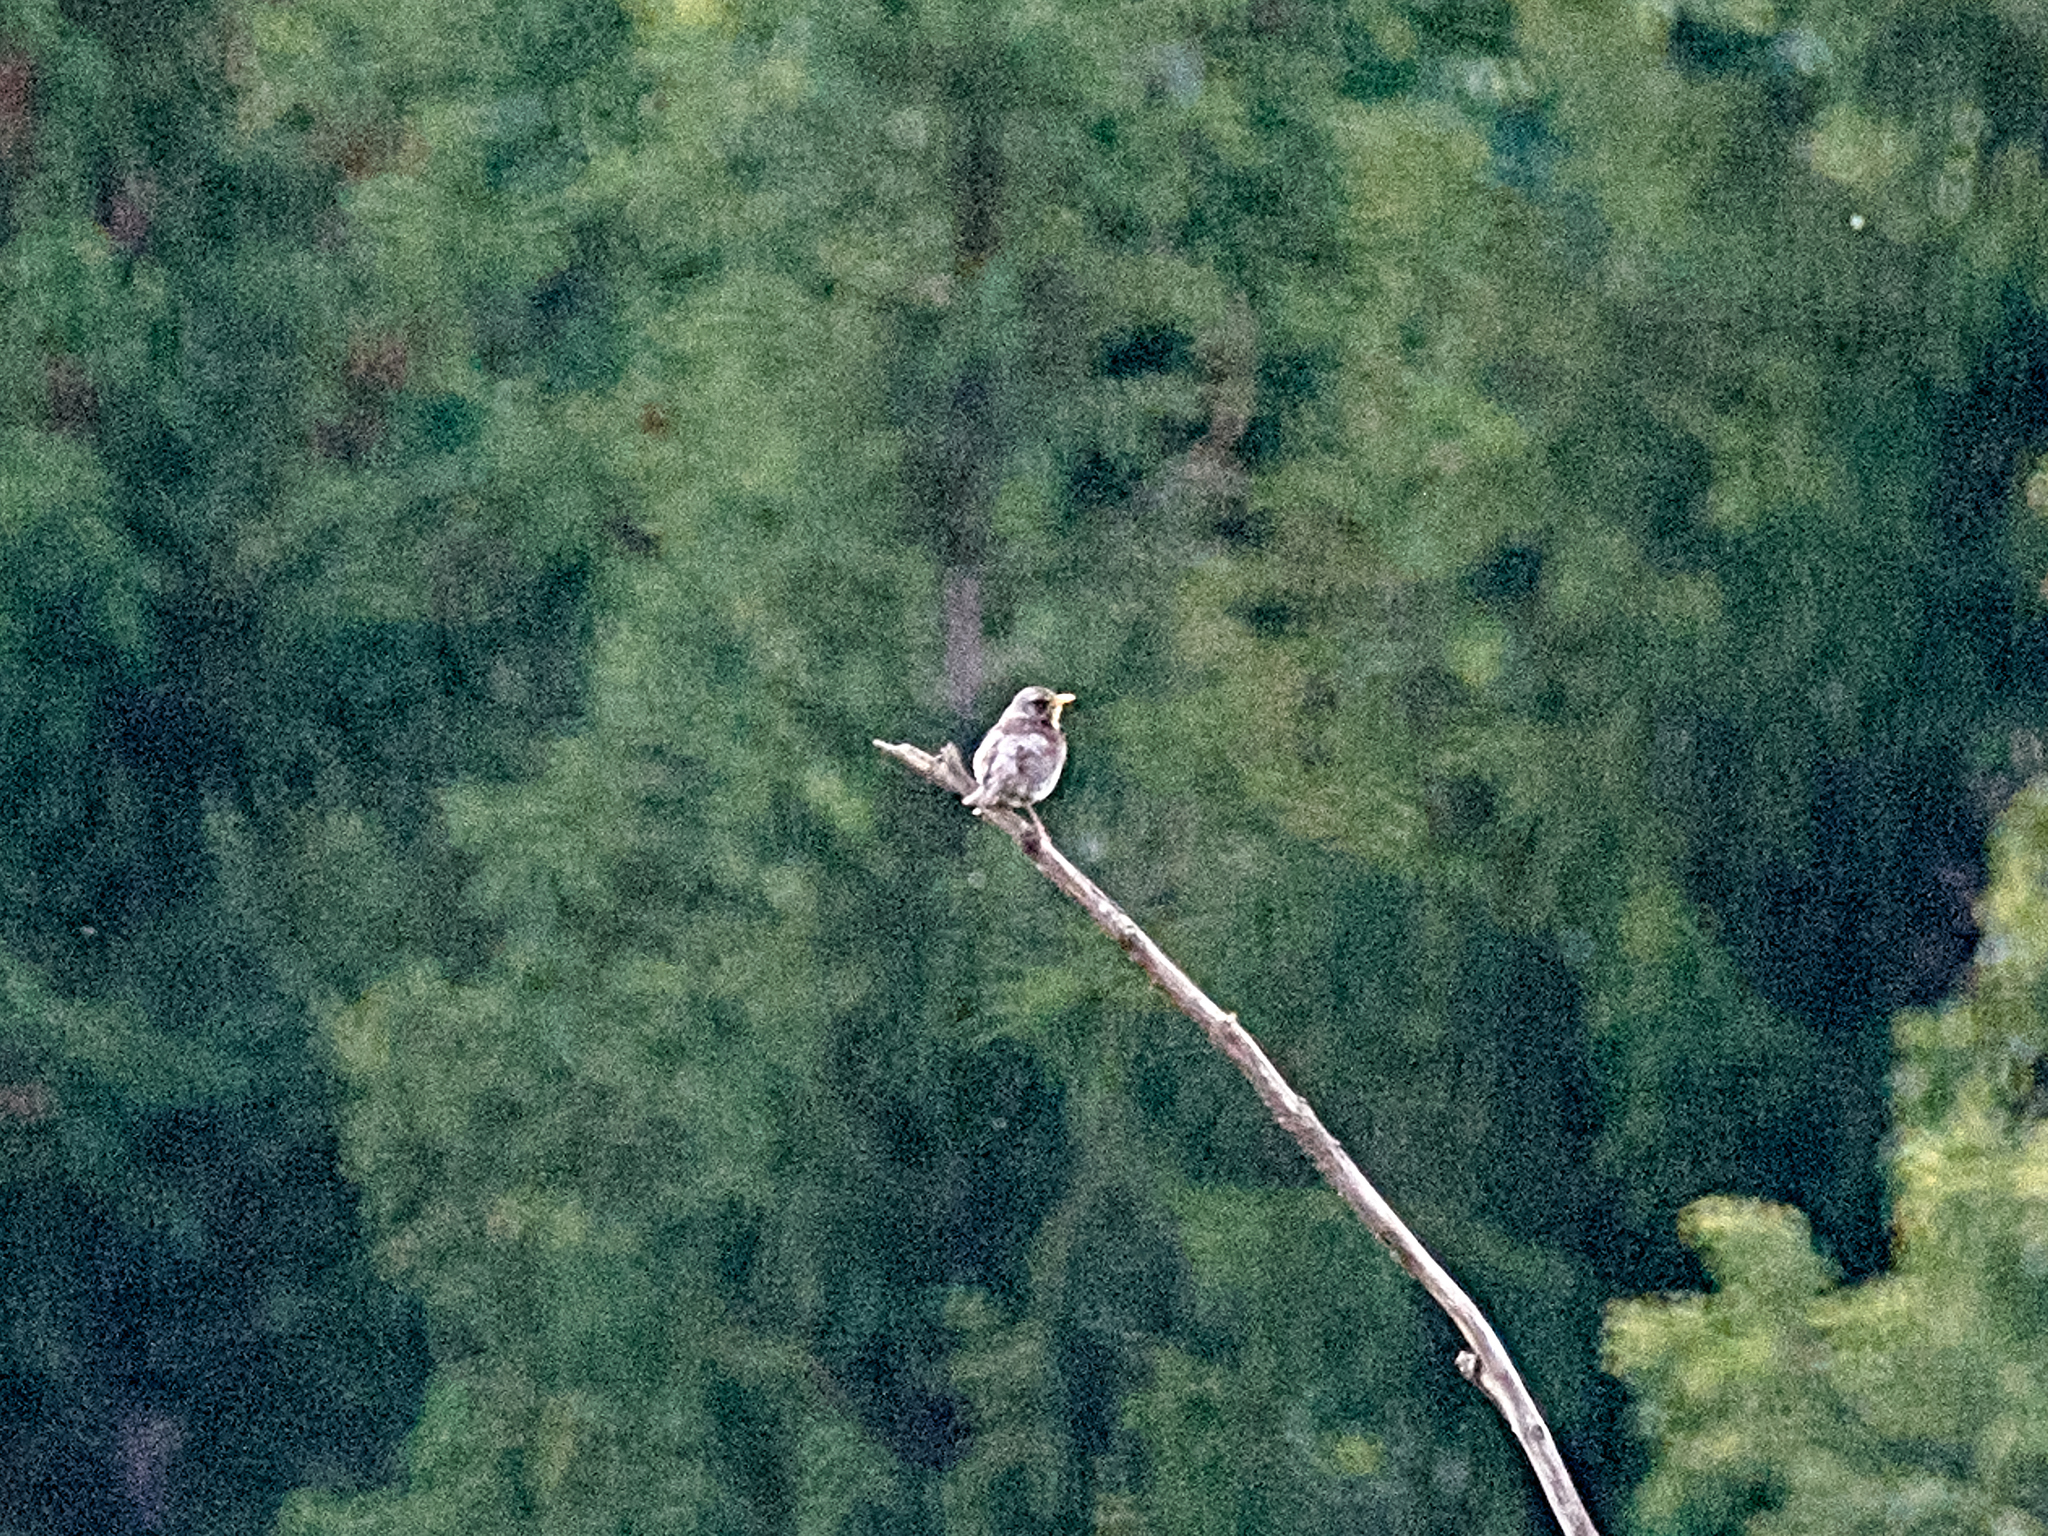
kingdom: Animalia
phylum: Chordata
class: Aves
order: Passeriformes
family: Turdidae
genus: Turdus
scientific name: Turdus pilaris
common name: Fieldfare
